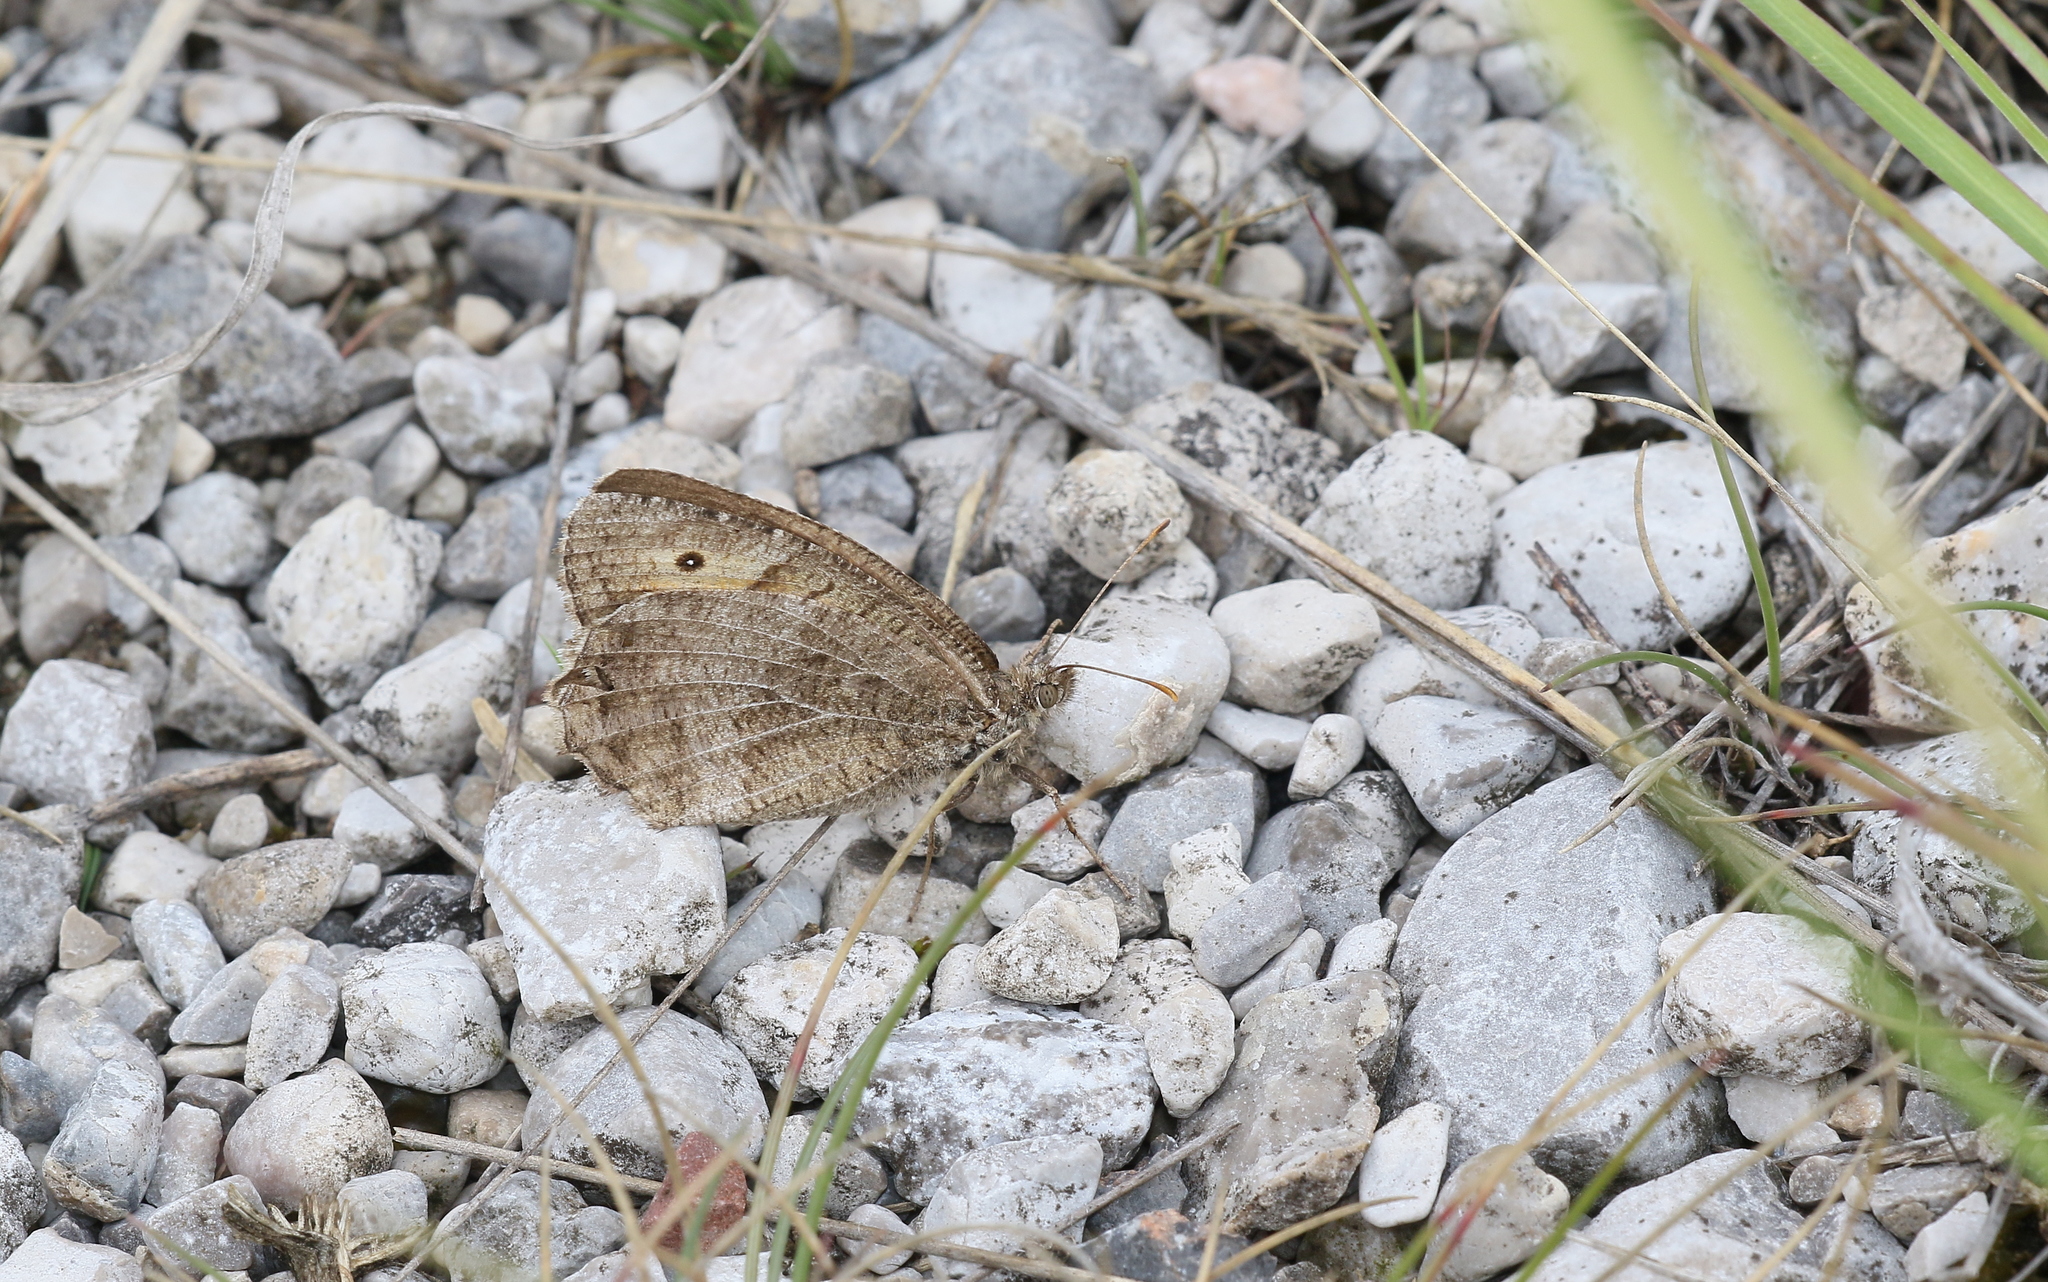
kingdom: Animalia
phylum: Arthropoda
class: Insecta
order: Lepidoptera
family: Nymphalidae
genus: Arethusana
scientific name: Arethusana arethusa
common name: False grayling
